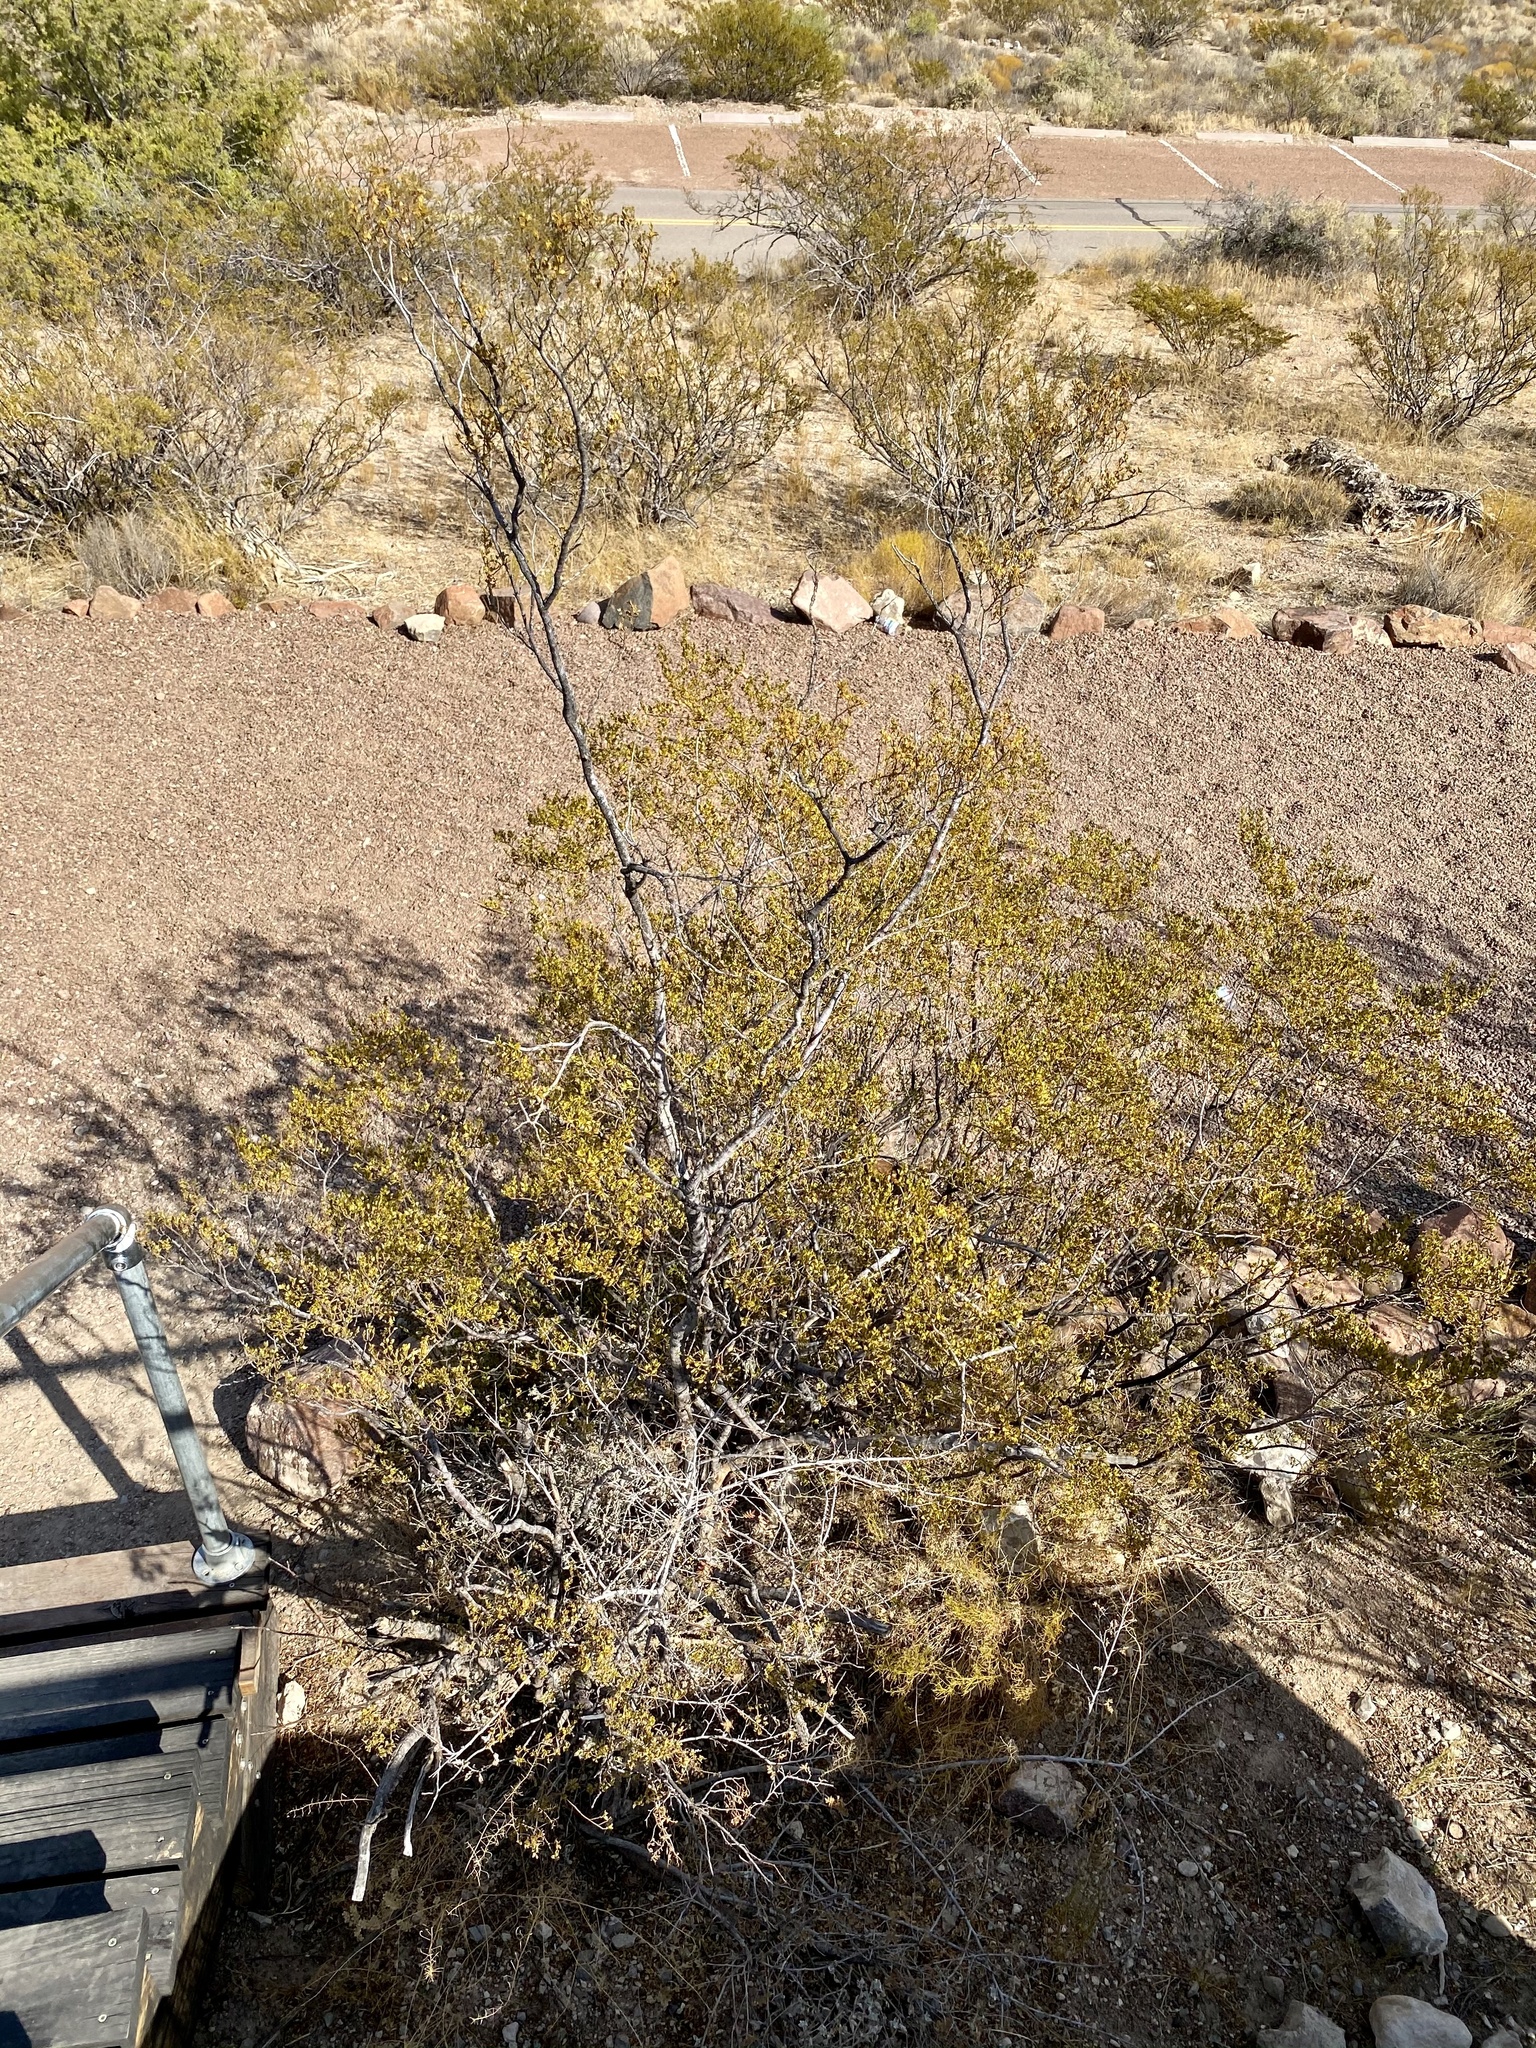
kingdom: Plantae
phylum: Tracheophyta
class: Magnoliopsida
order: Zygophyllales
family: Zygophyllaceae
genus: Larrea
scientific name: Larrea tridentata
